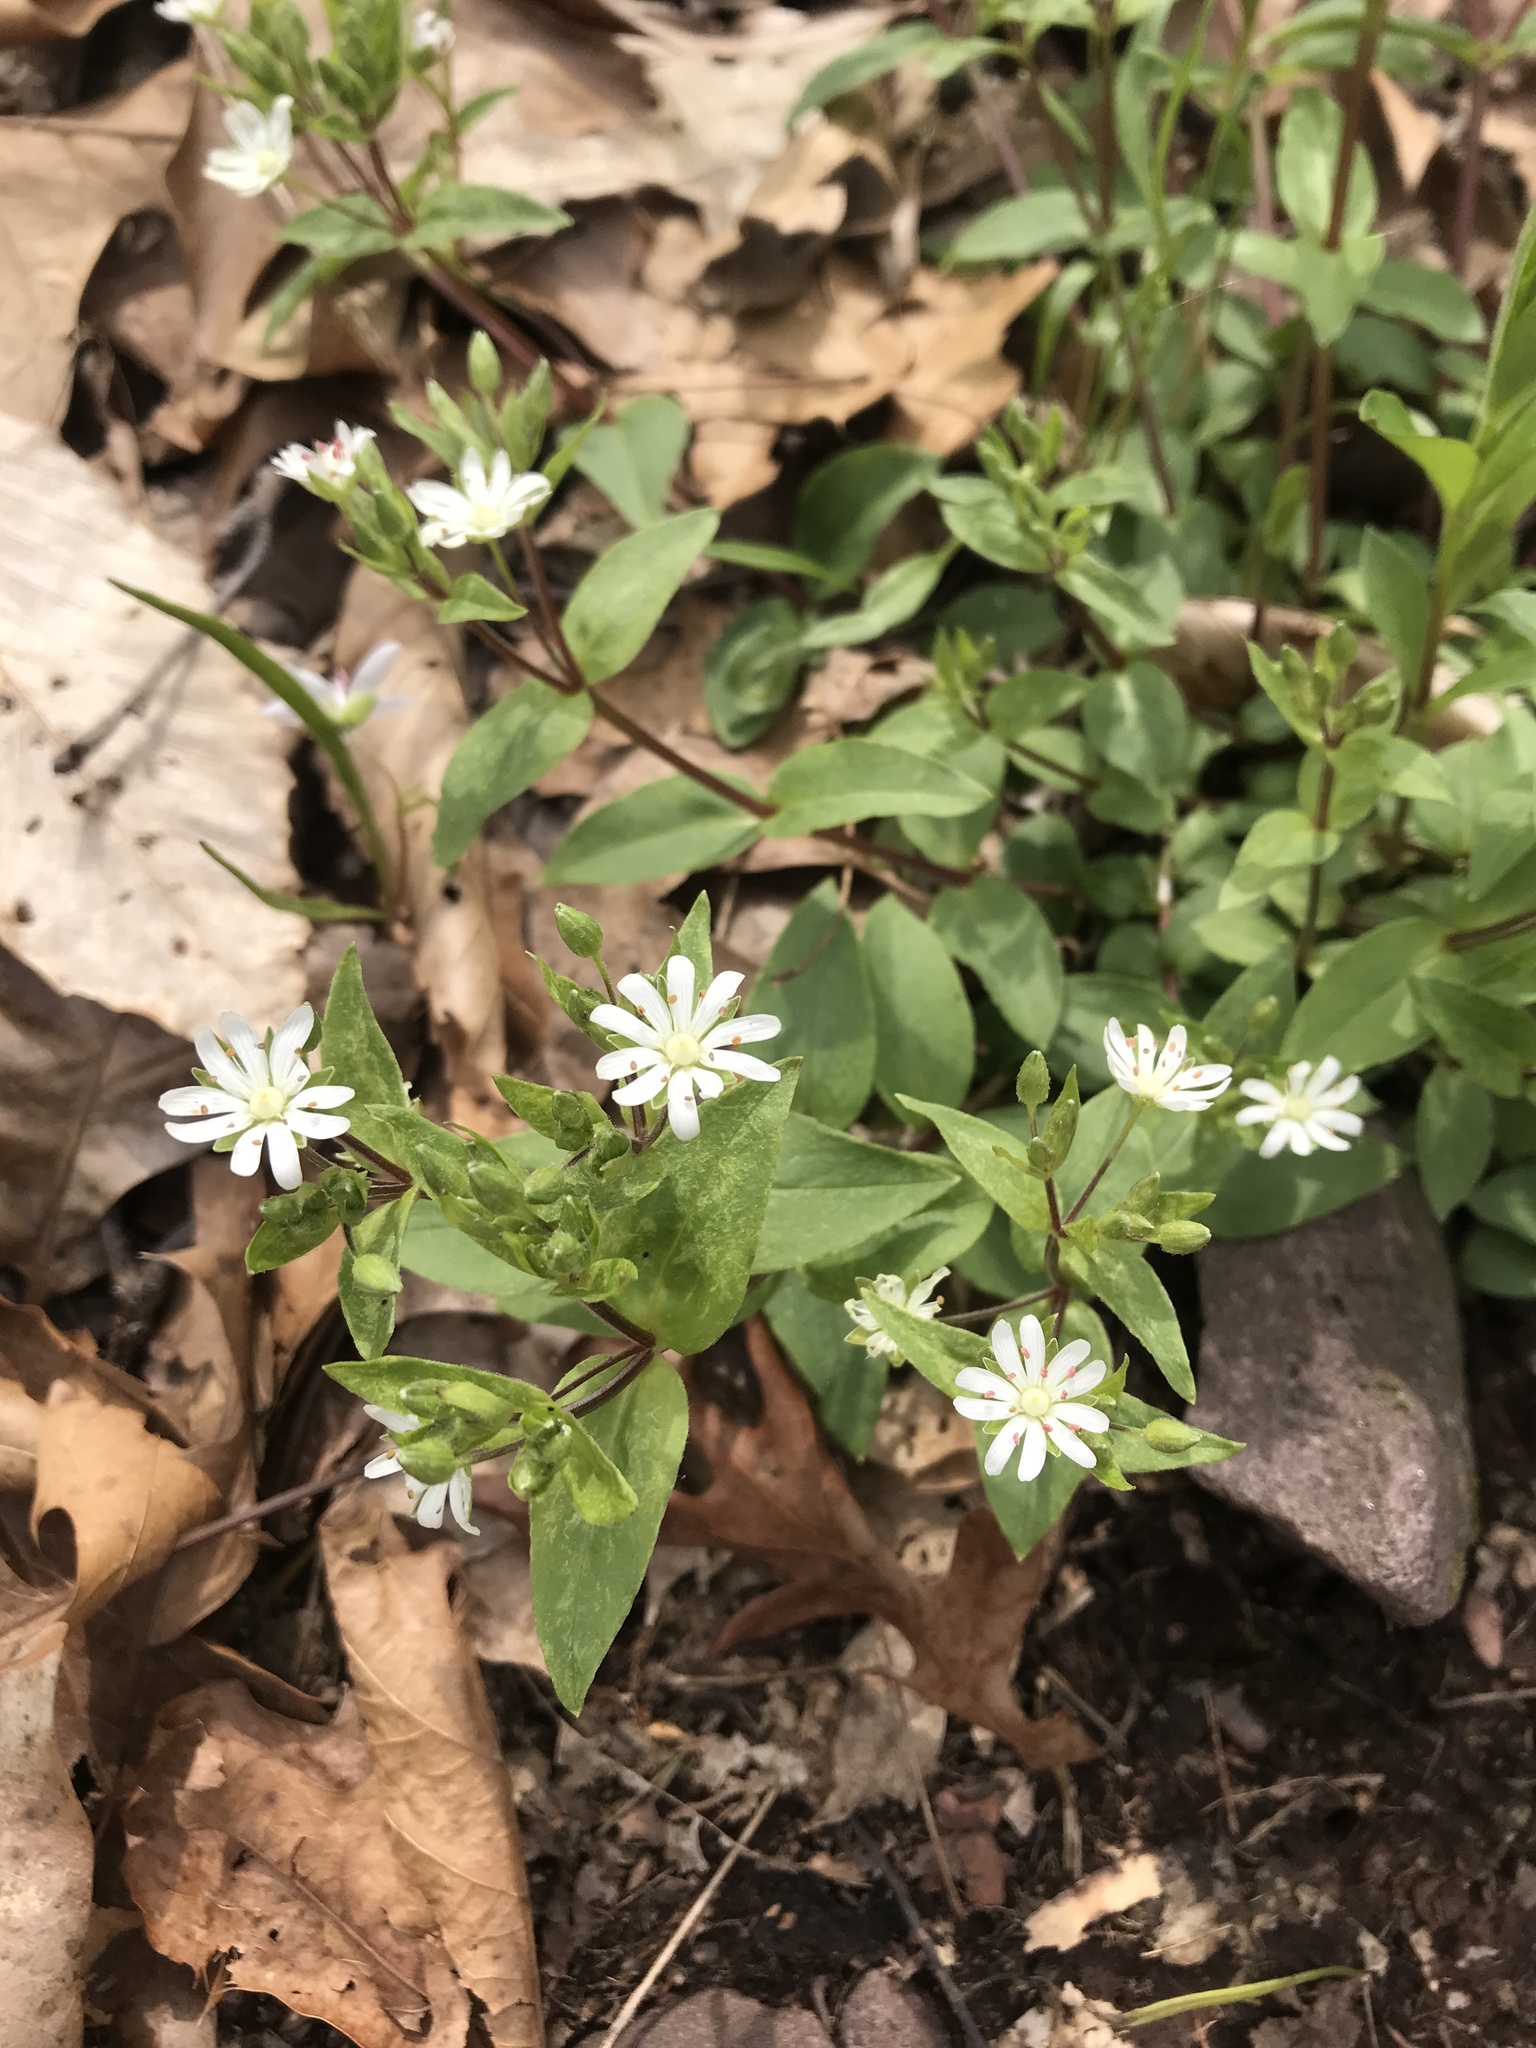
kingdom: Plantae
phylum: Tracheophyta
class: Magnoliopsida
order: Caryophyllales
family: Caryophyllaceae
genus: Stellaria
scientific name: Stellaria pubera
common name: Star chickweed
